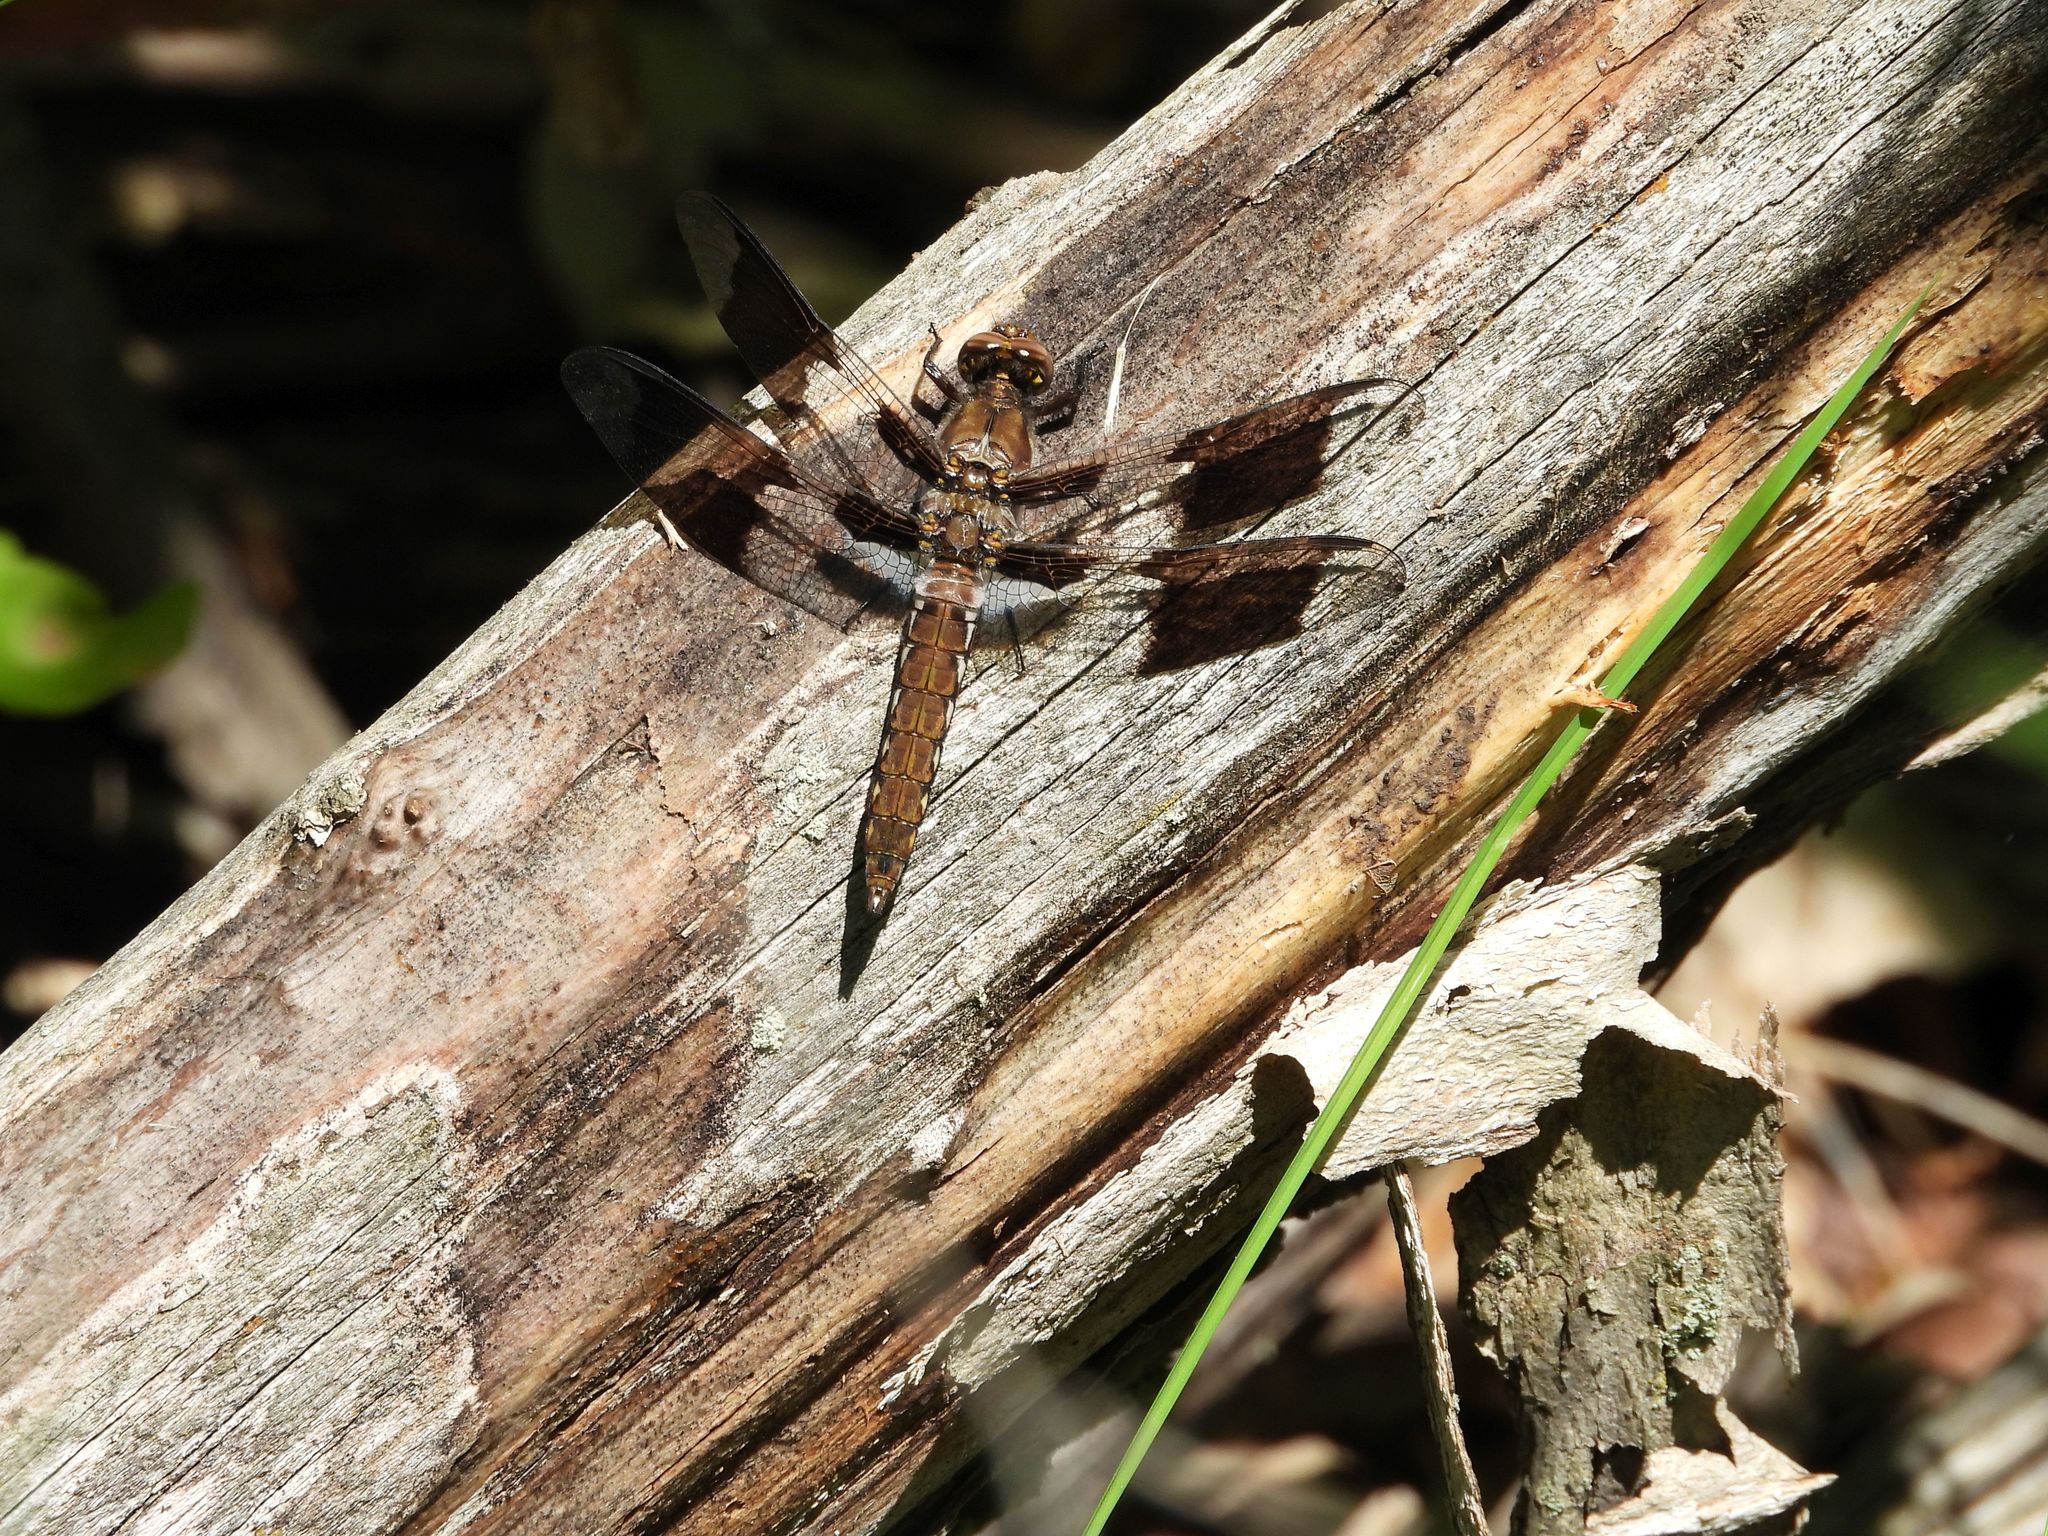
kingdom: Animalia
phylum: Arthropoda
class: Insecta
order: Odonata
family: Libellulidae
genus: Plathemis
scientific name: Plathemis lydia
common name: Common whitetail
